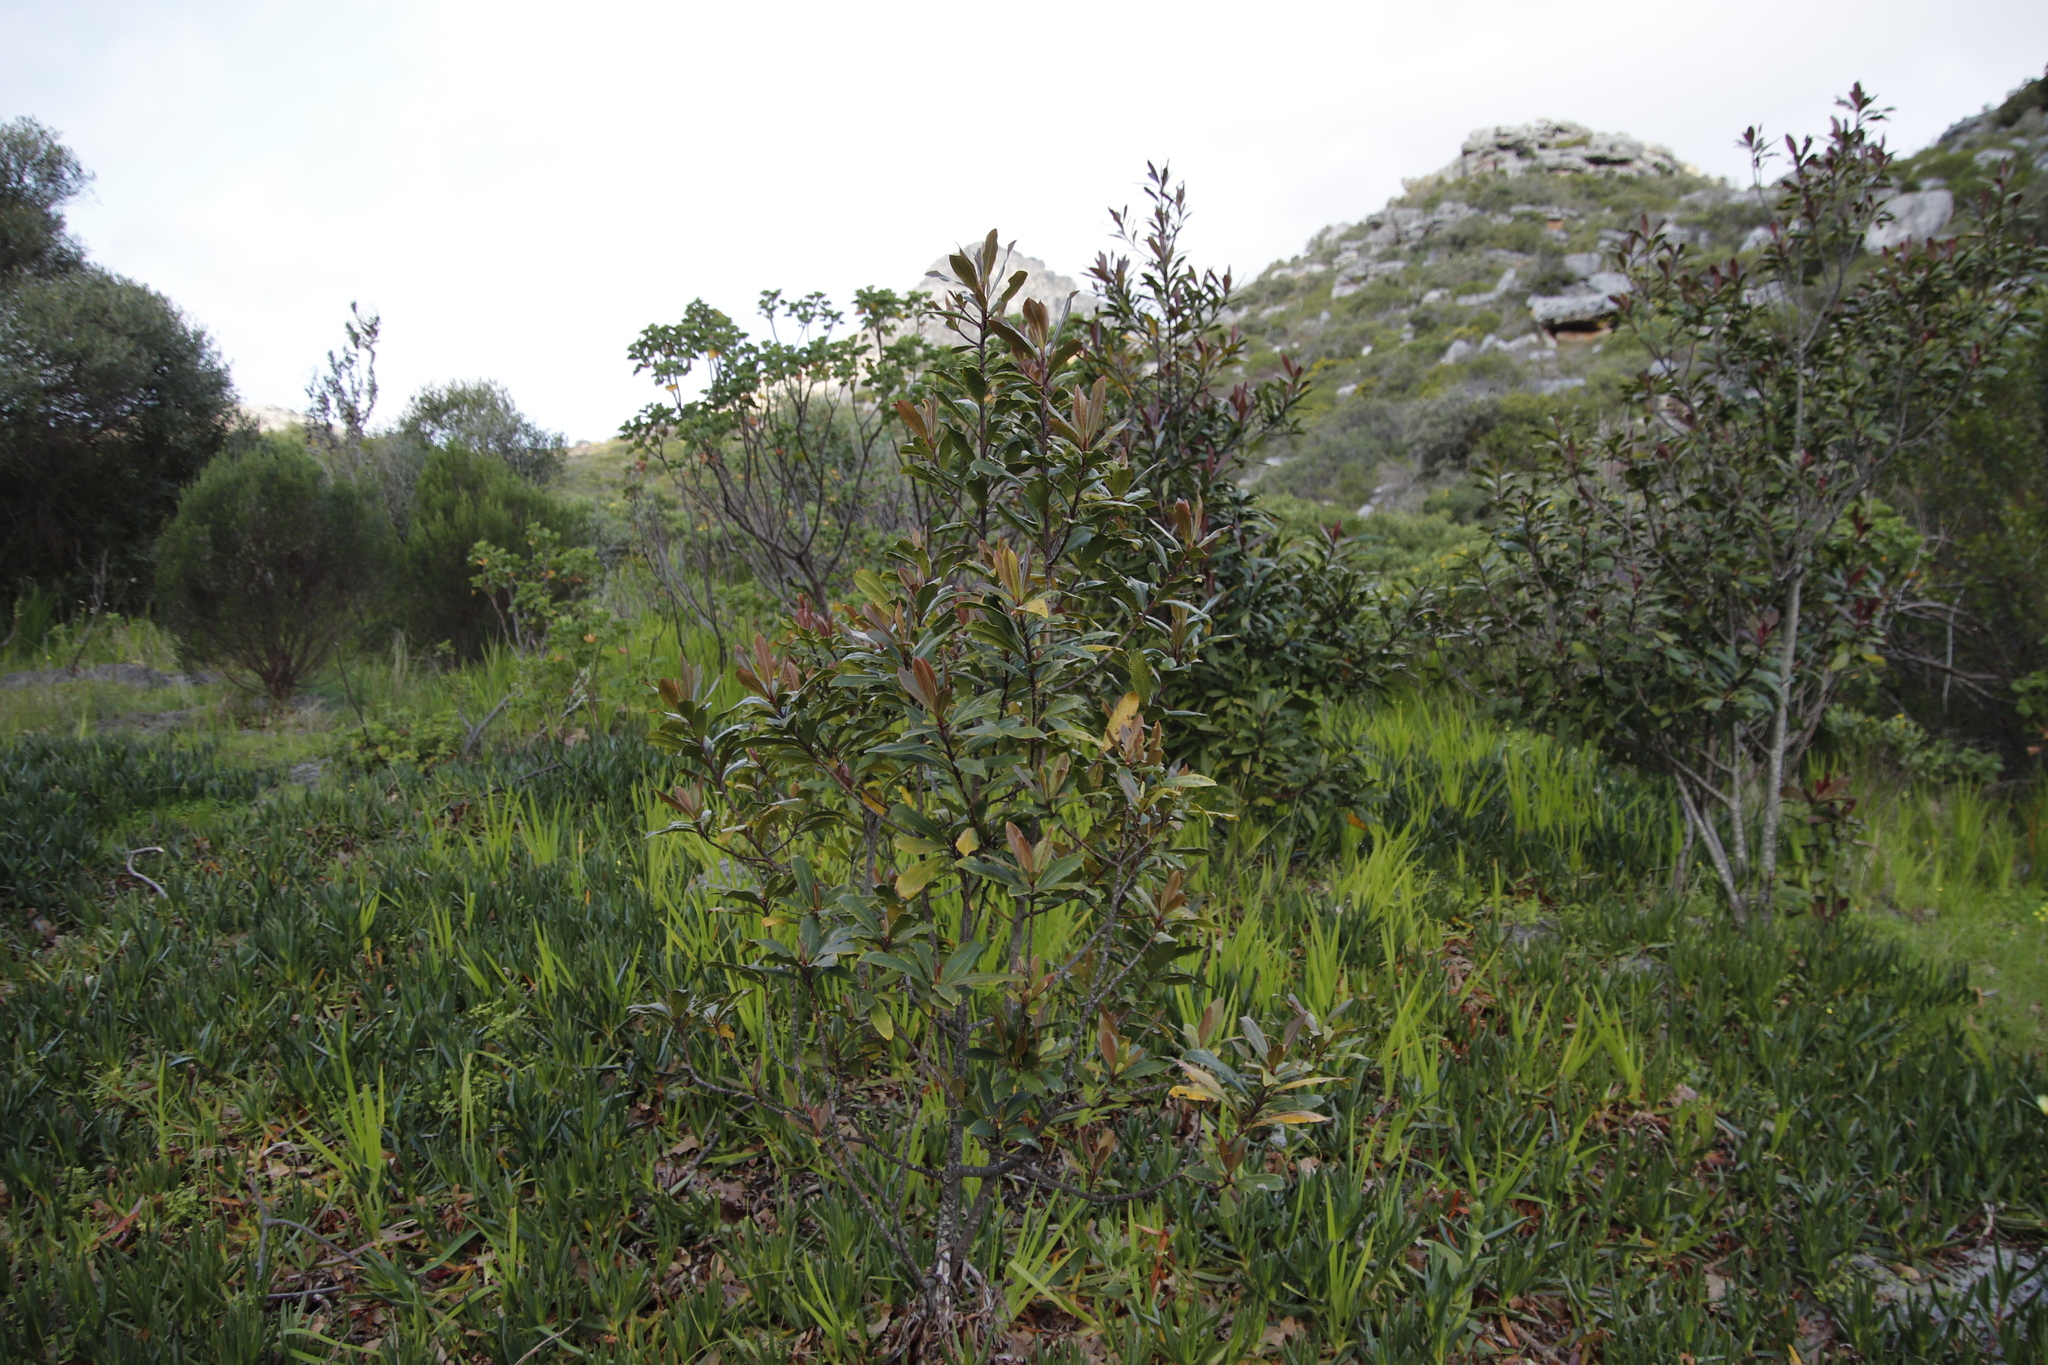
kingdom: Plantae
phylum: Tracheophyta
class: Magnoliopsida
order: Ericales
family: Primulaceae
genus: Myrsine
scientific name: Myrsine melanophloeos
